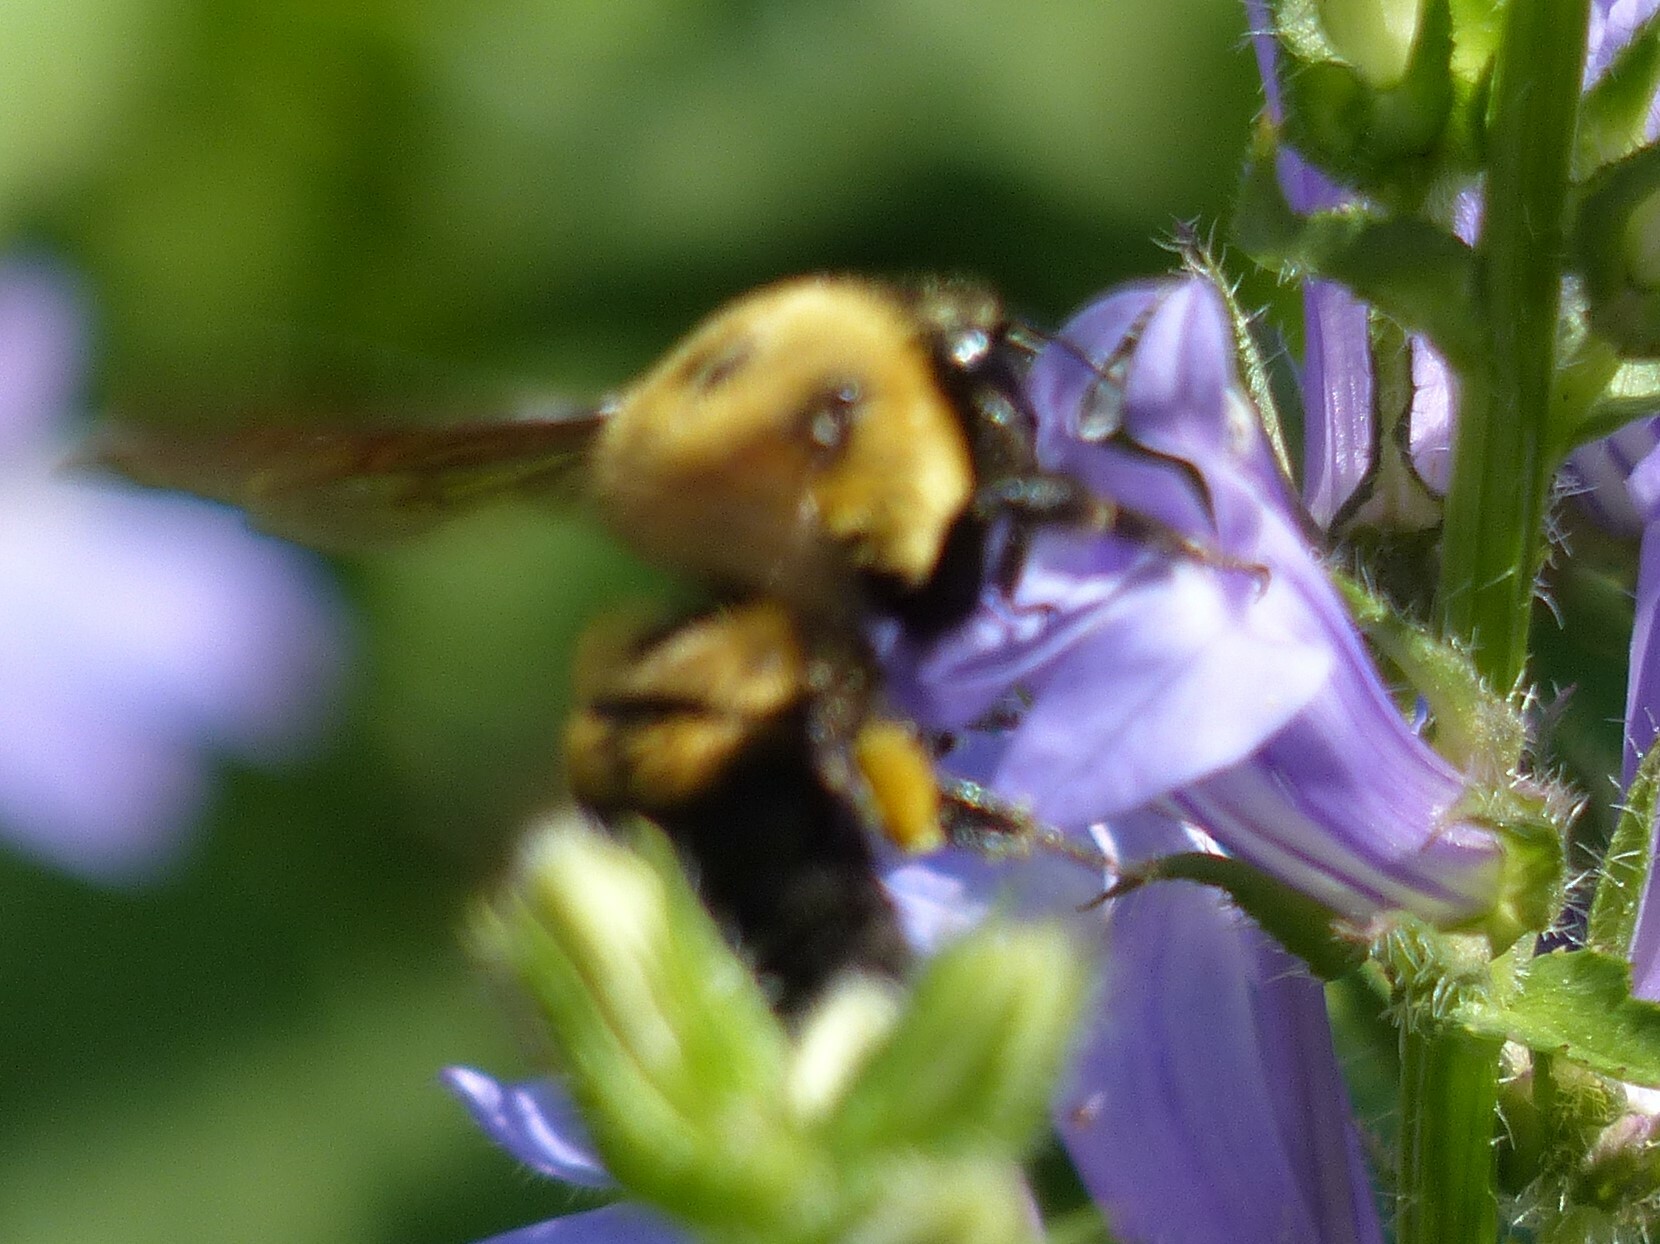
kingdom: Animalia
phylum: Arthropoda
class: Insecta
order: Hymenoptera
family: Apidae
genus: Bombus
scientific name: Bombus griseocollis
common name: Brown-belted bumble bee
